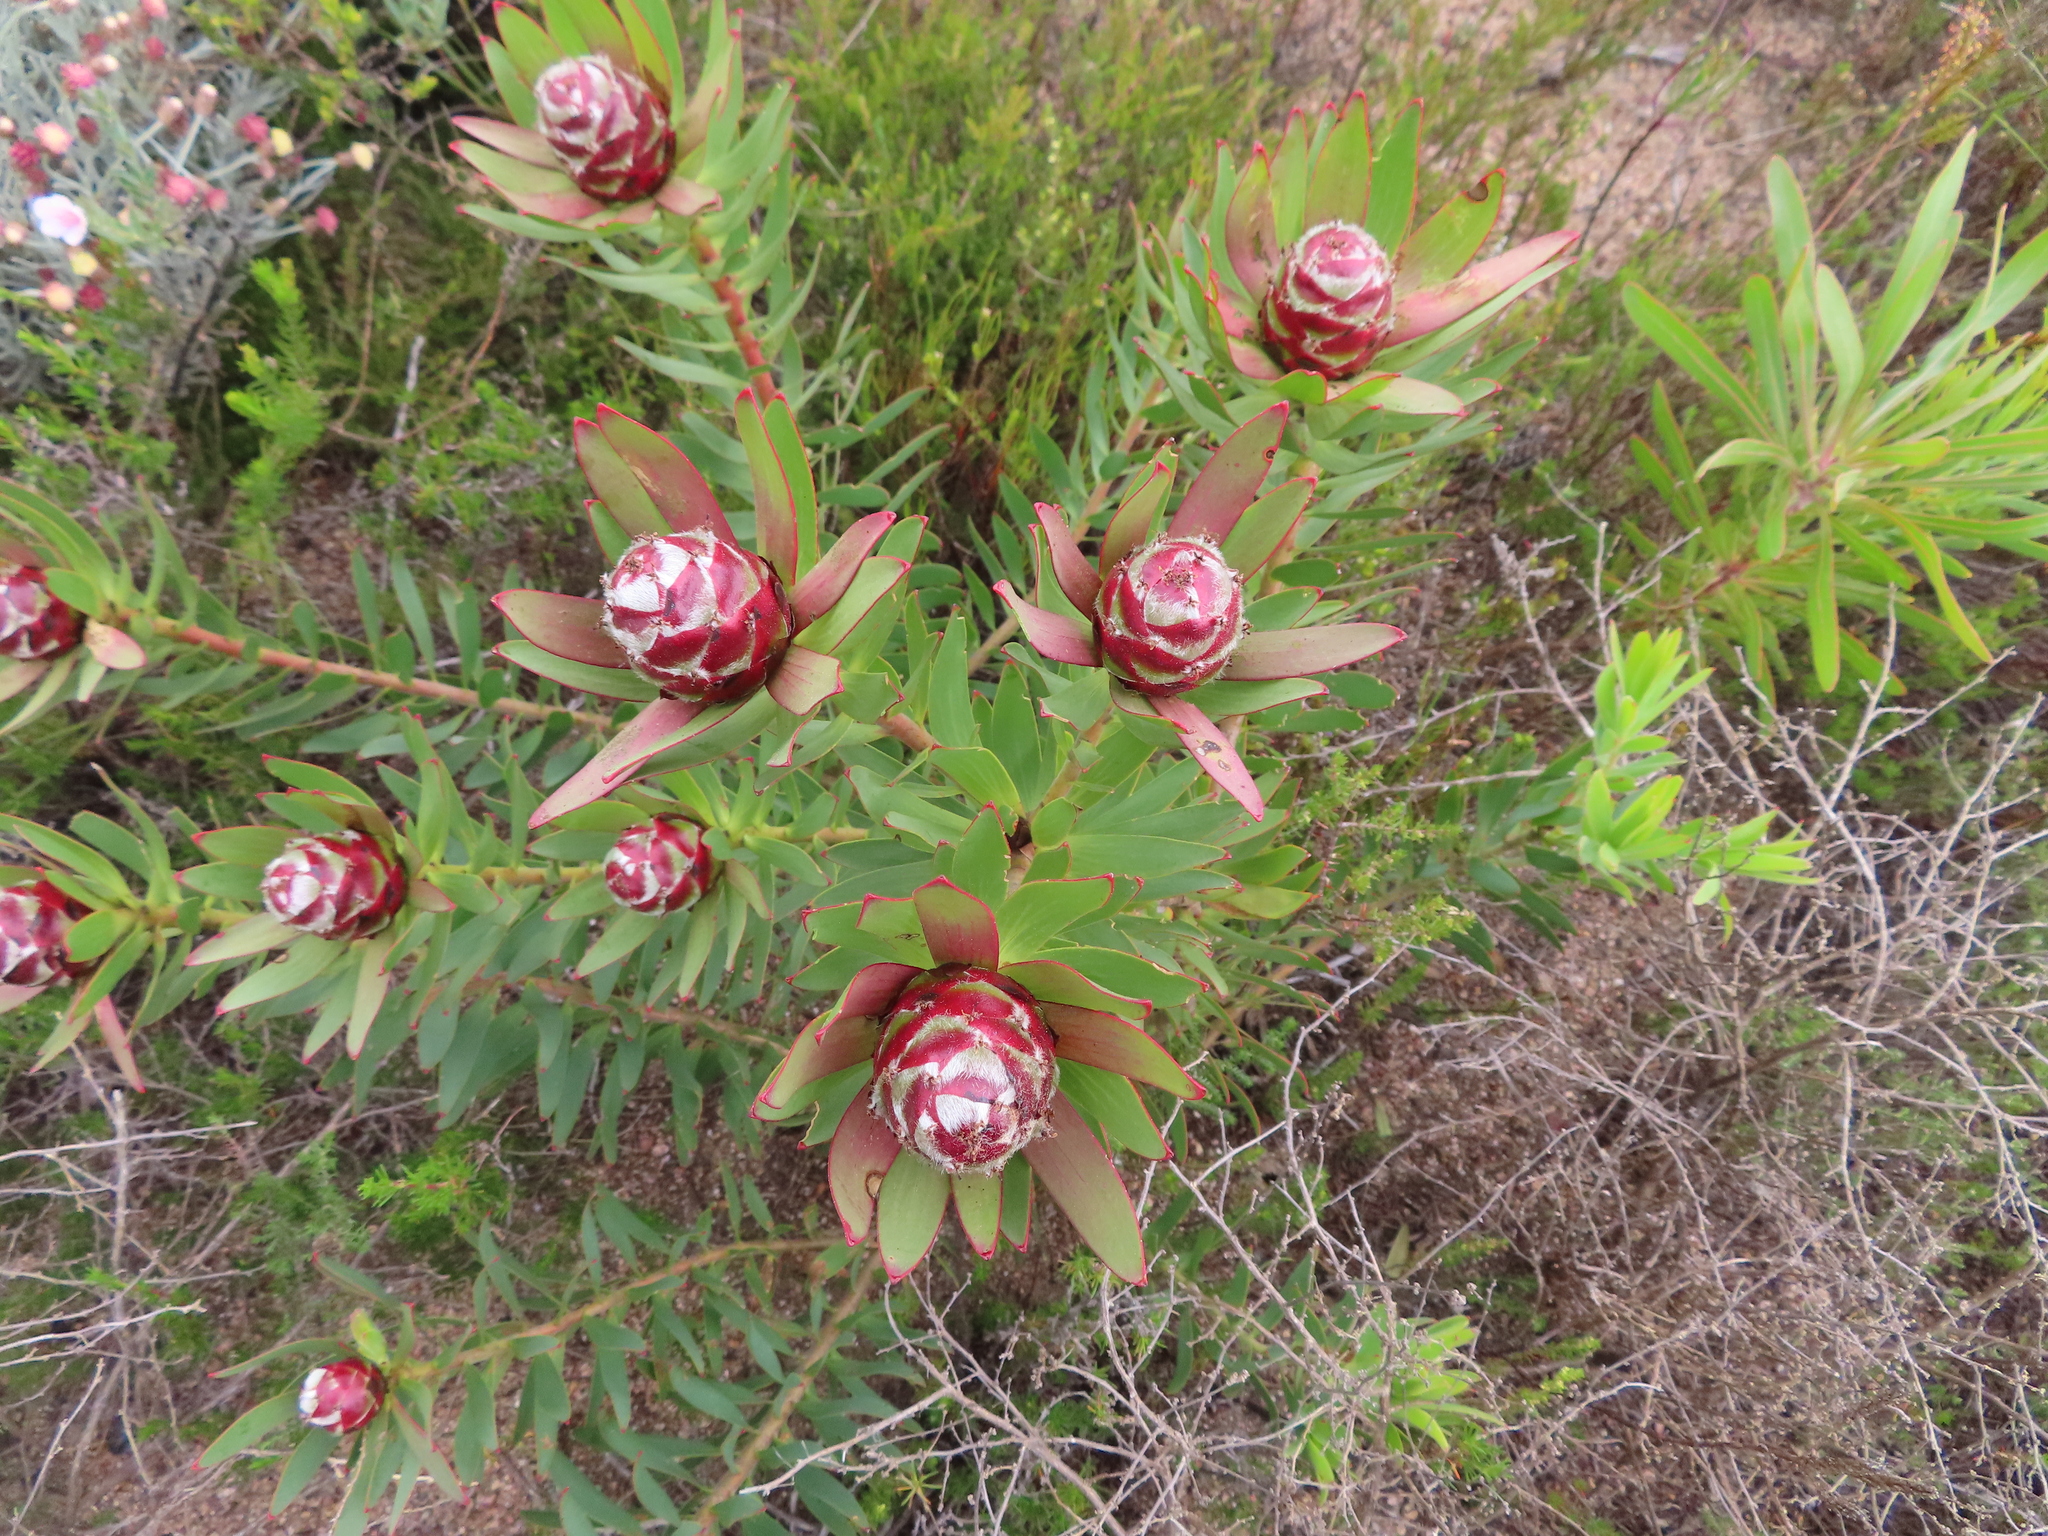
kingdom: Plantae
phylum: Tracheophyta
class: Magnoliopsida
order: Proteales
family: Proteaceae
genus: Leucadendron
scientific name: Leucadendron sessile
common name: Western sunbush
